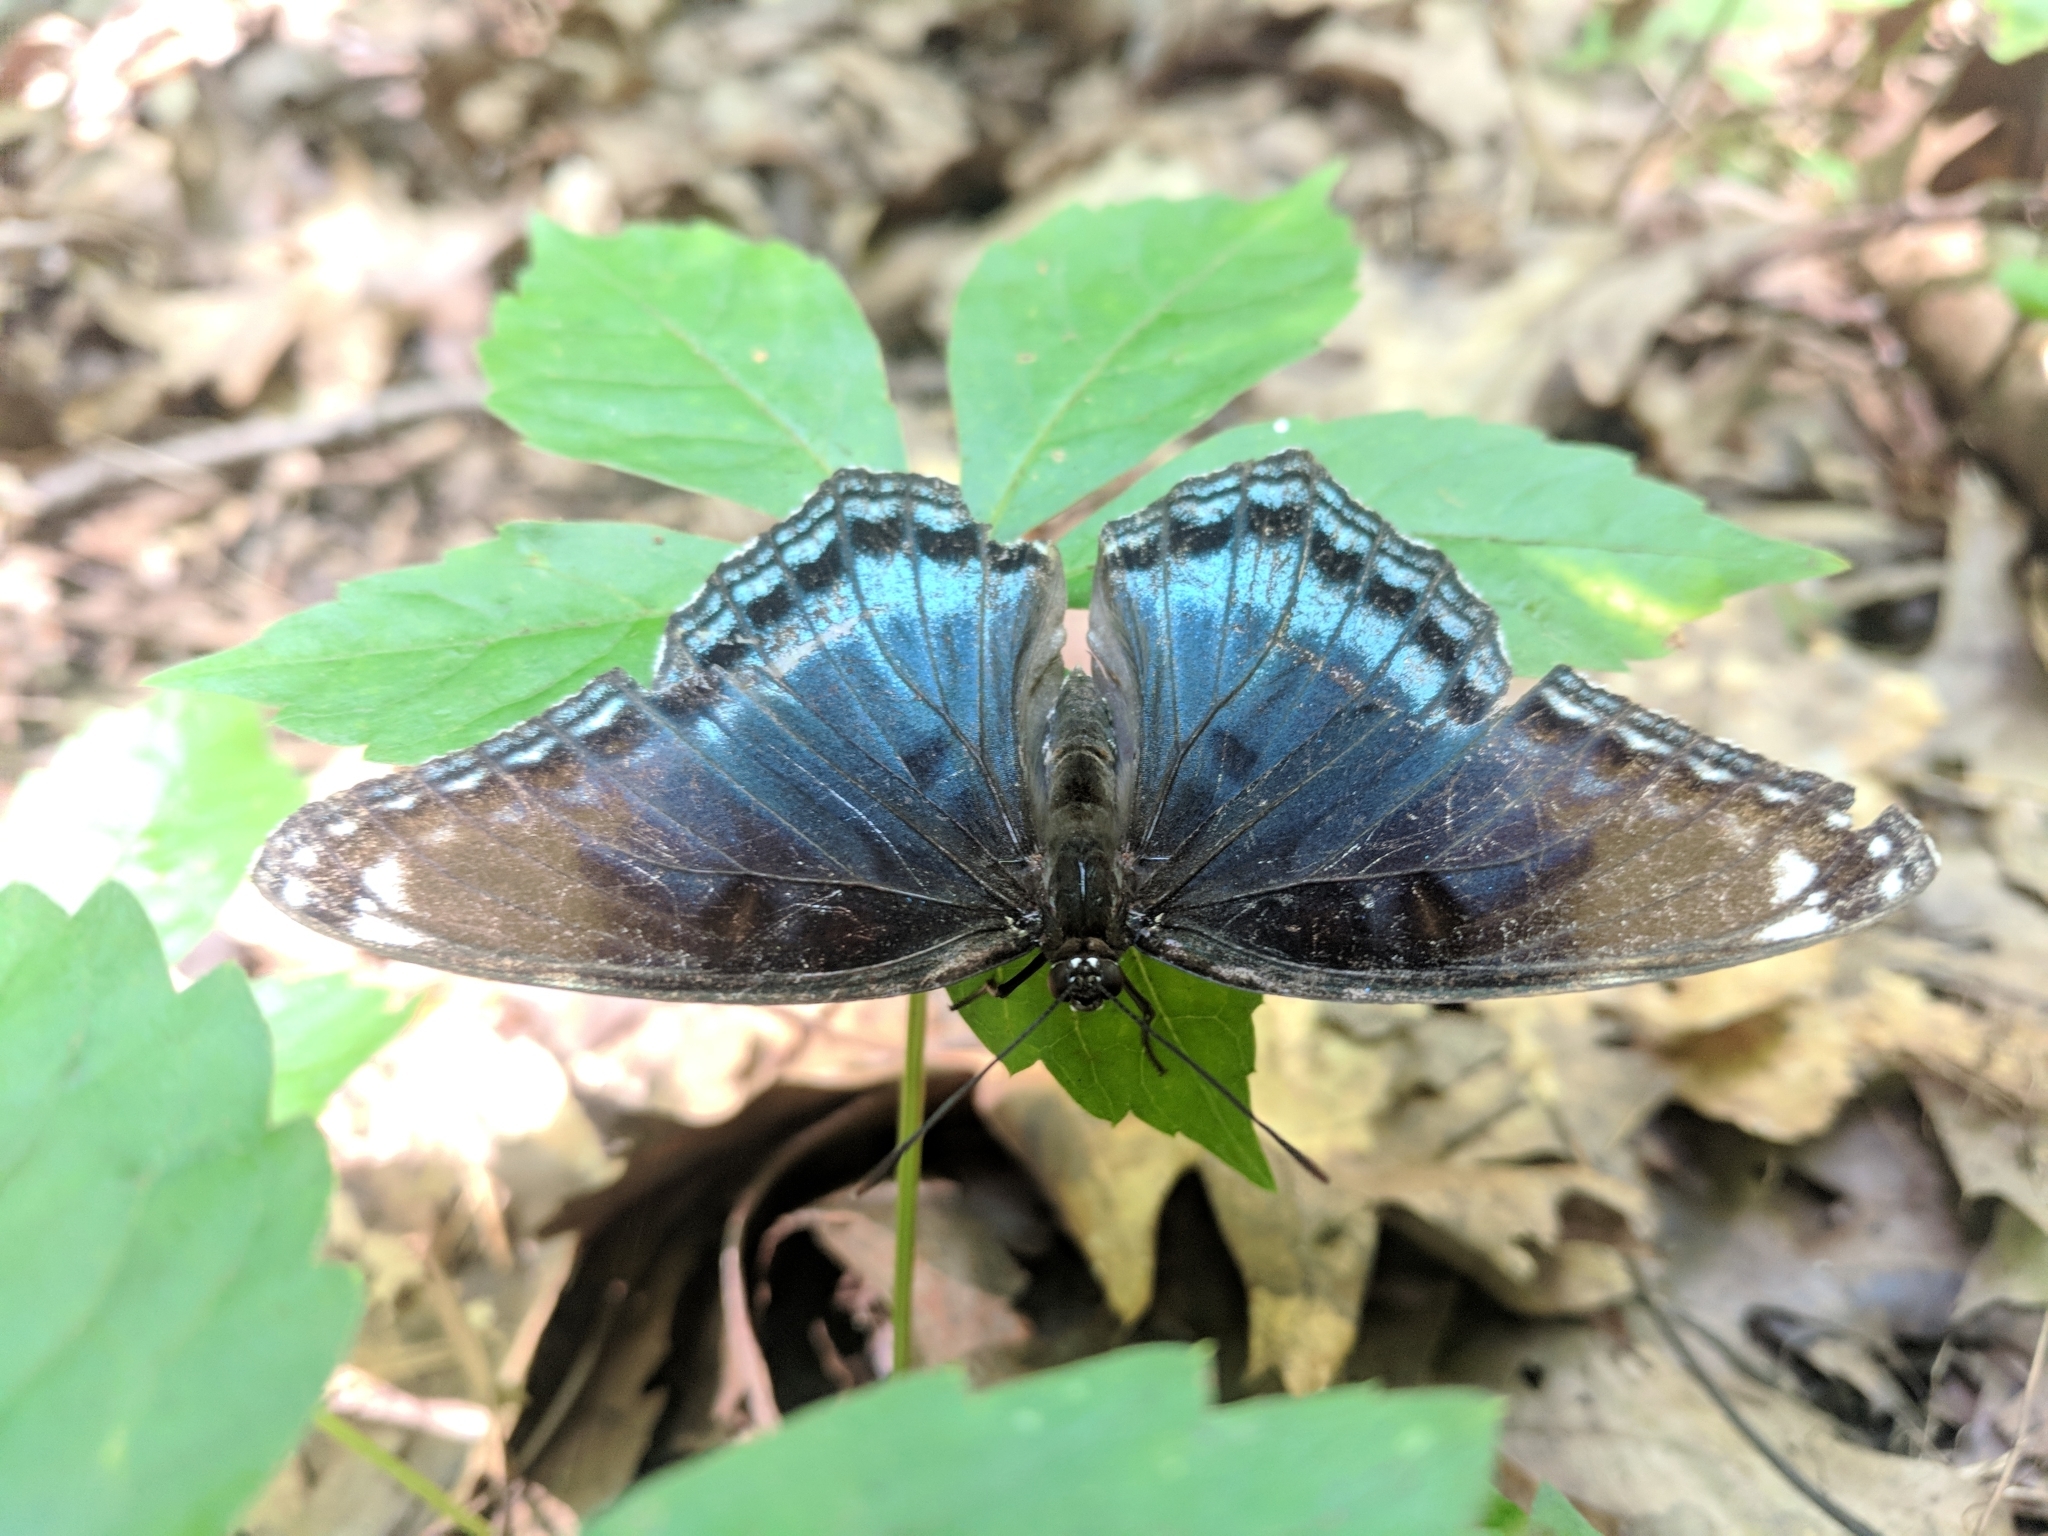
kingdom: Animalia
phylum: Arthropoda
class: Insecta
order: Lepidoptera
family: Nymphalidae
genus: Limenitis
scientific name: Limenitis astyanax
